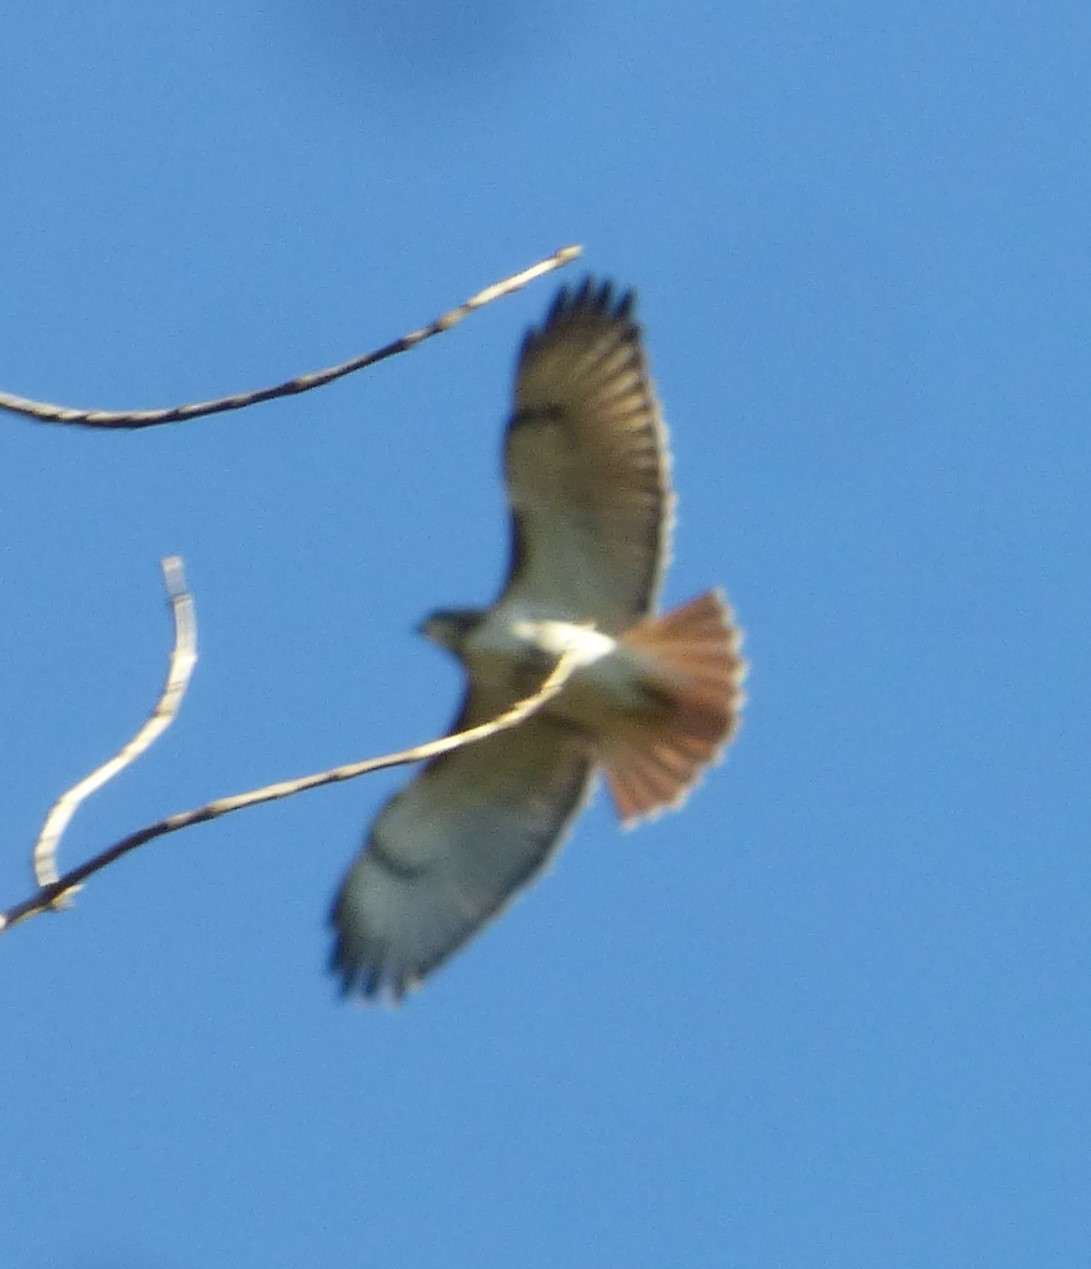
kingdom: Animalia
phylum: Chordata
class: Aves
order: Accipitriformes
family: Accipitridae
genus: Buteo
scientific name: Buteo jamaicensis
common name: Red-tailed hawk
